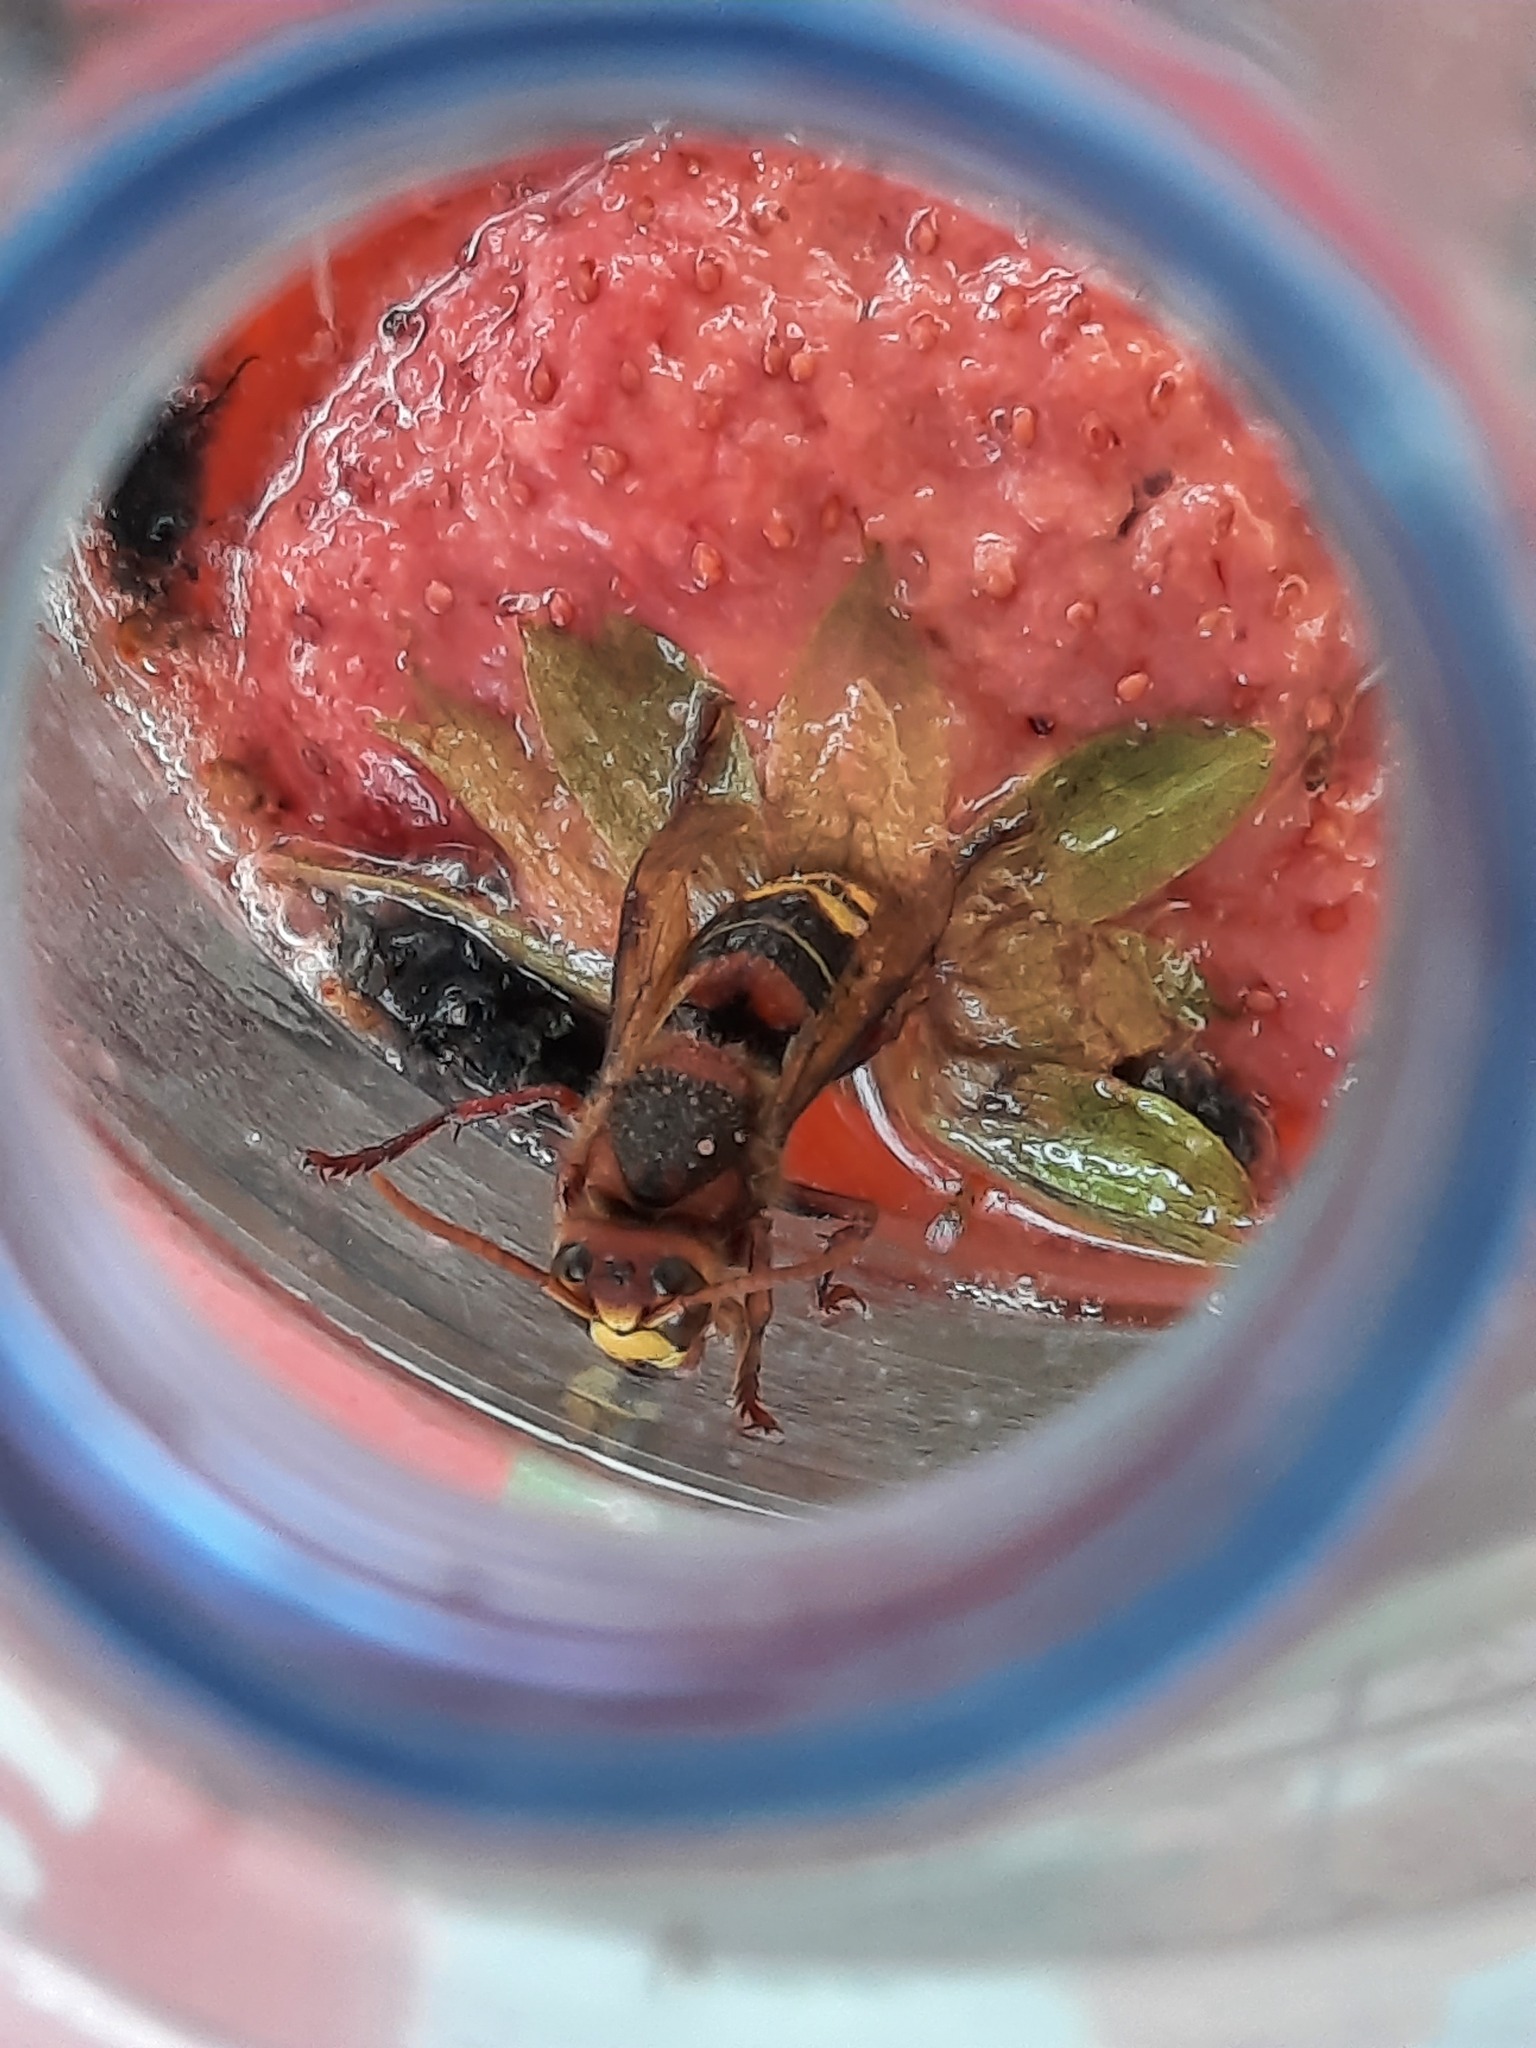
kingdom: Animalia
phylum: Arthropoda
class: Insecta
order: Hymenoptera
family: Vespidae
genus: Vespa
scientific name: Vespa crabro
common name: Hornet
